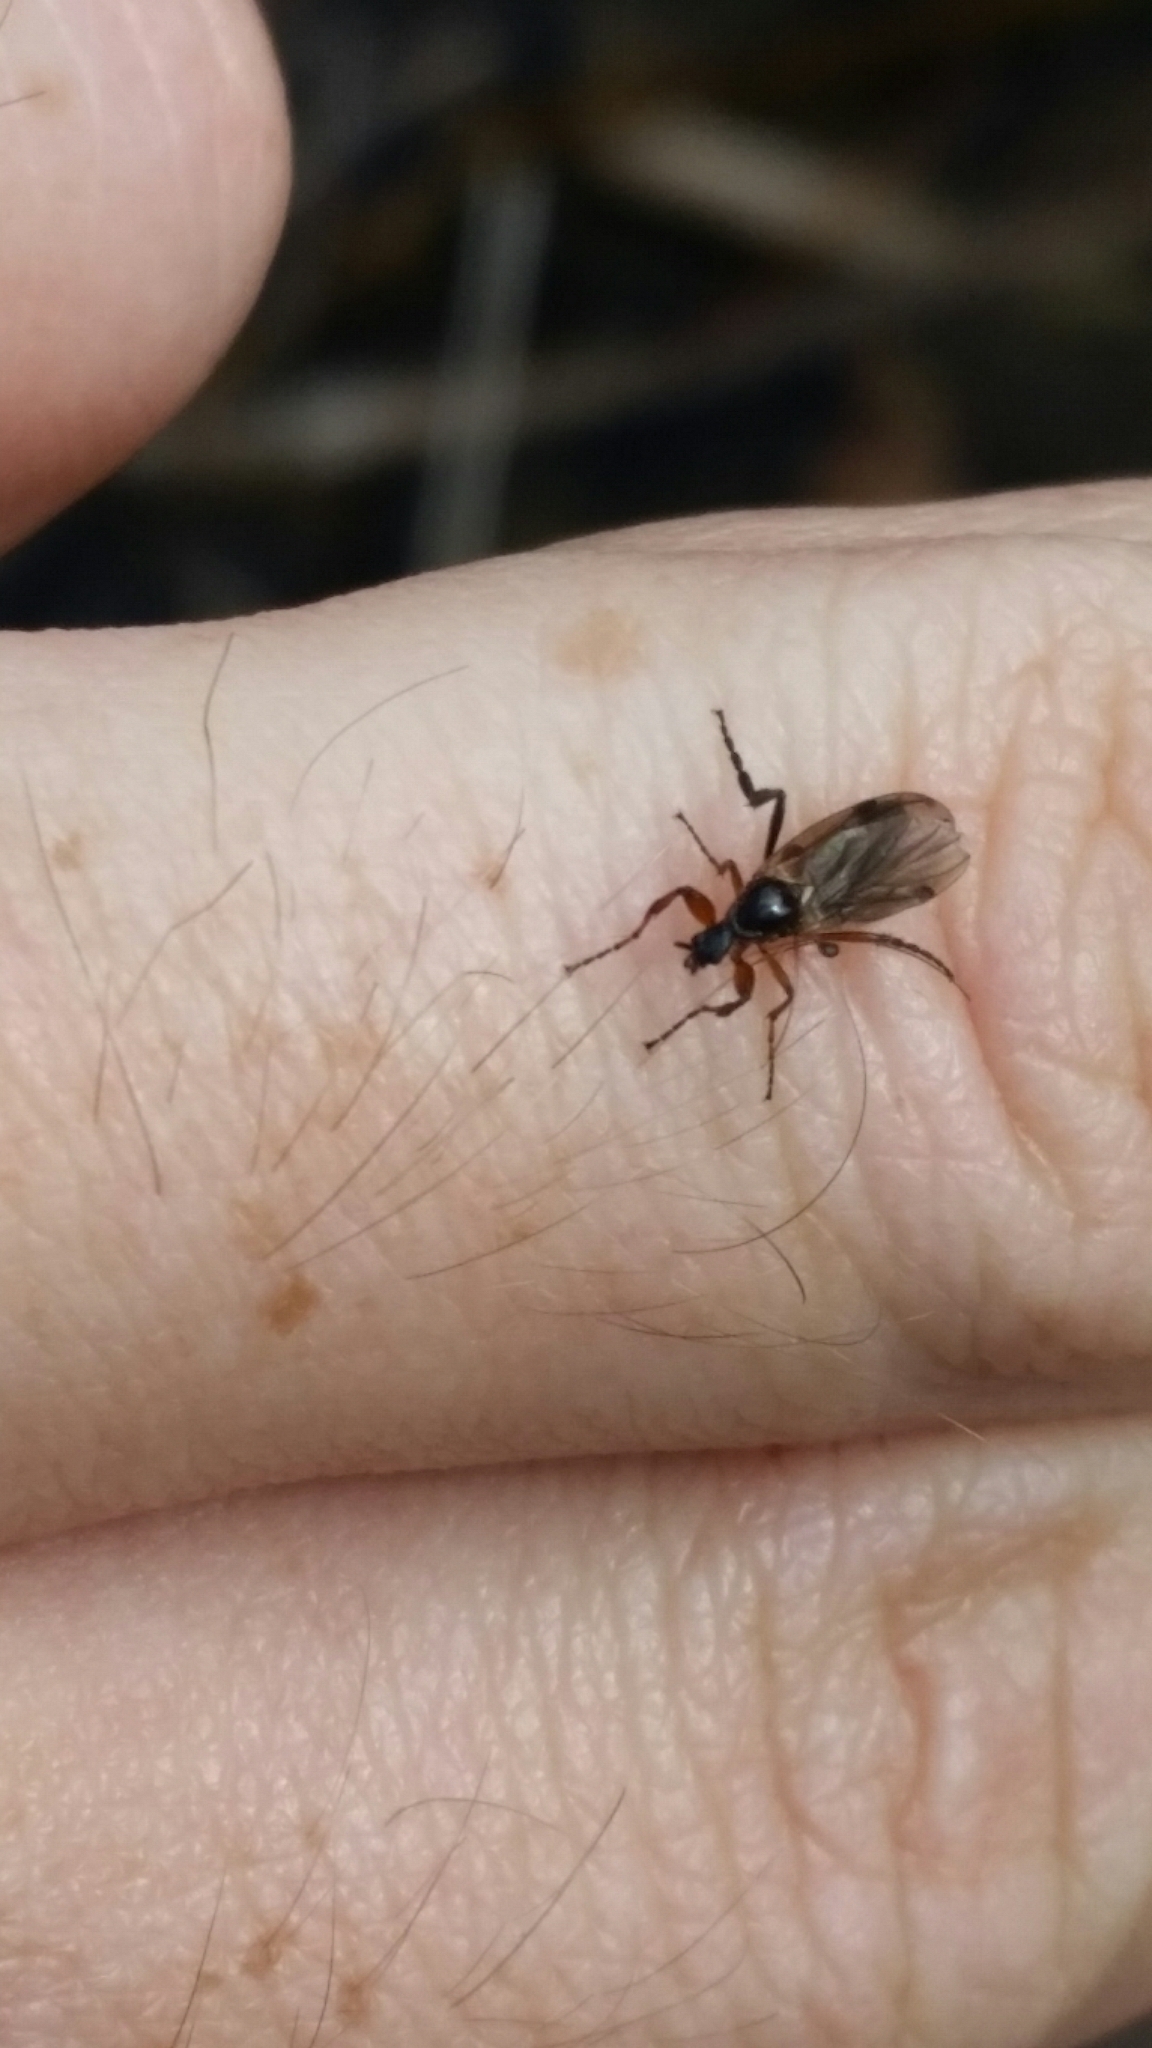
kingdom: Animalia
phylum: Arthropoda
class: Insecta
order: Diptera
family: Bibionidae
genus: Bibio
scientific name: Bibio slossonae
